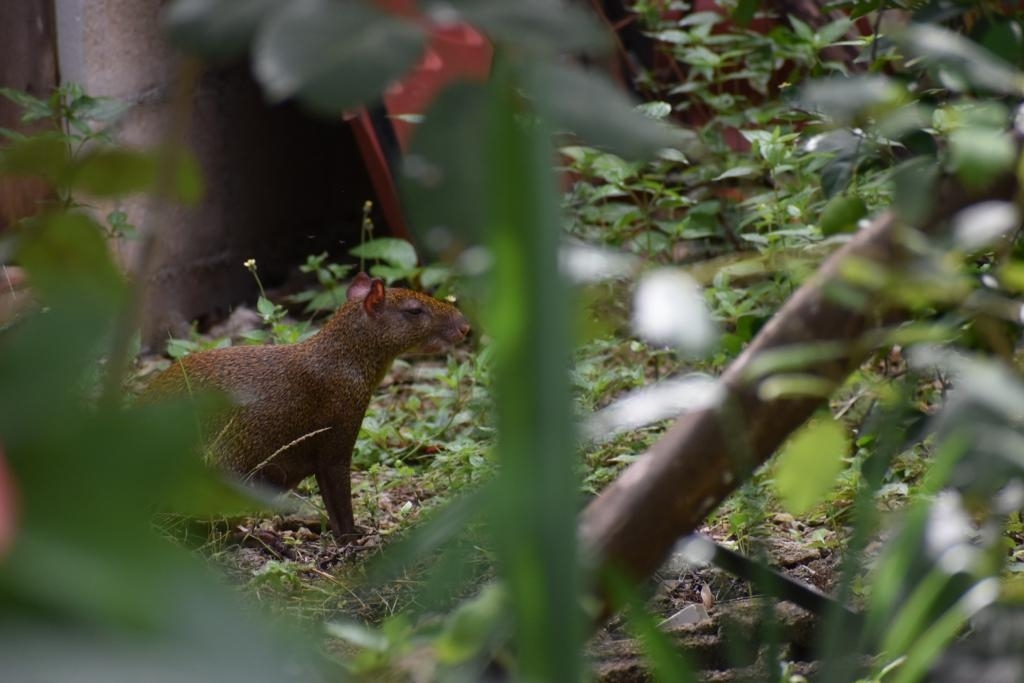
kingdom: Animalia
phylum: Chordata
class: Mammalia
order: Rodentia
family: Dasyproctidae
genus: Dasyprocta
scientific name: Dasyprocta punctata
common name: Central american agouti
